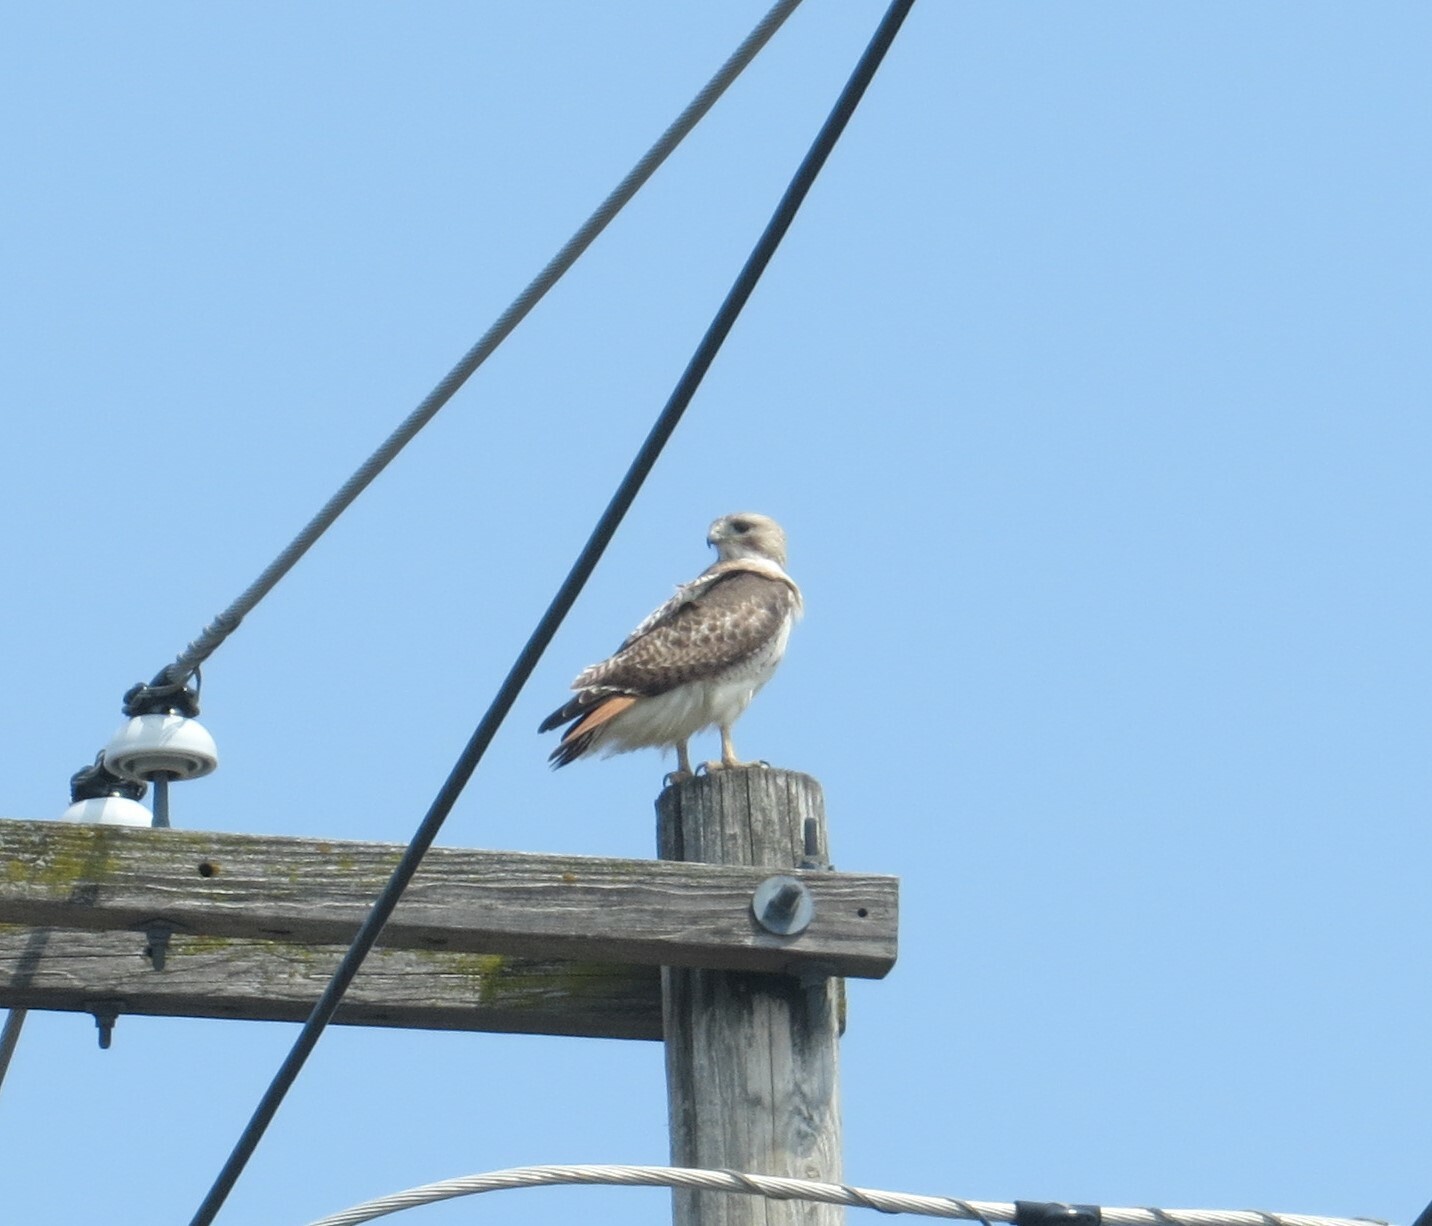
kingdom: Animalia
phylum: Chordata
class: Aves
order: Accipitriformes
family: Accipitridae
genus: Buteo
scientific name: Buteo jamaicensis
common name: Red-tailed hawk
